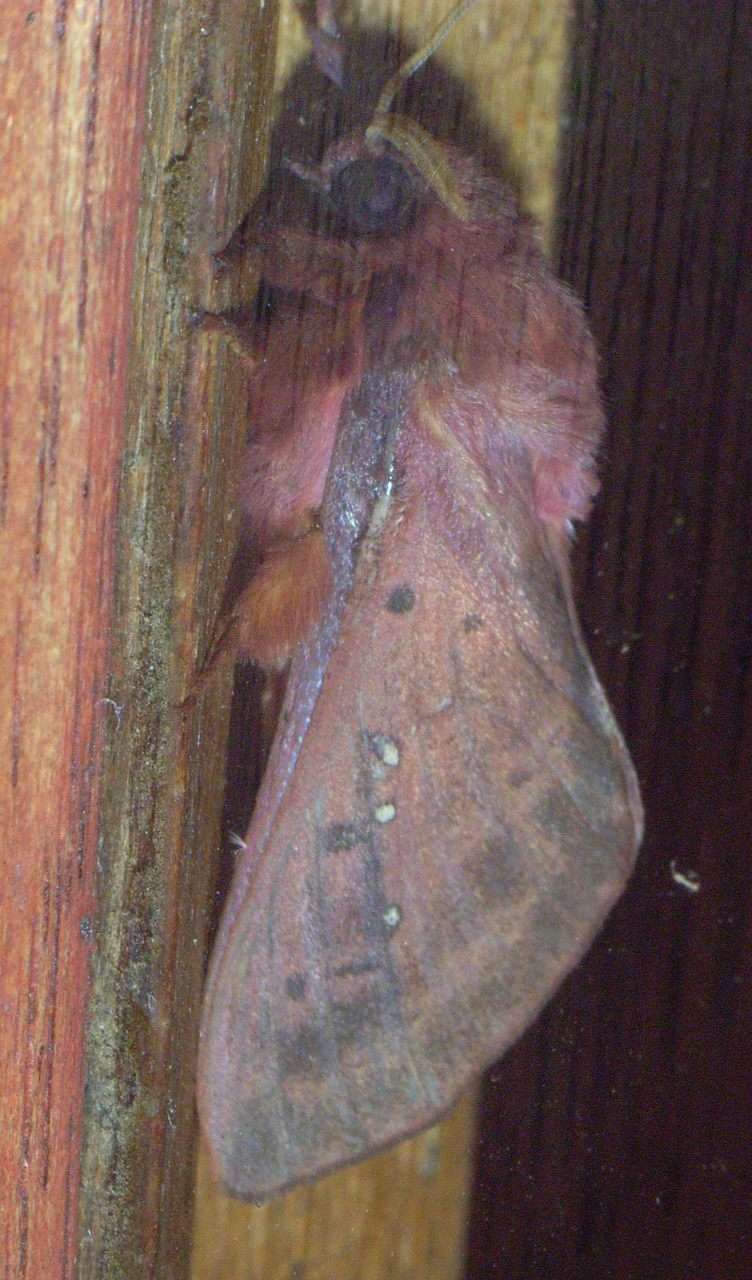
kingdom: Animalia
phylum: Arthropoda
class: Insecta
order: Lepidoptera
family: Hepialidae
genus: Oxycanus
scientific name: Oxycanus rufescens
